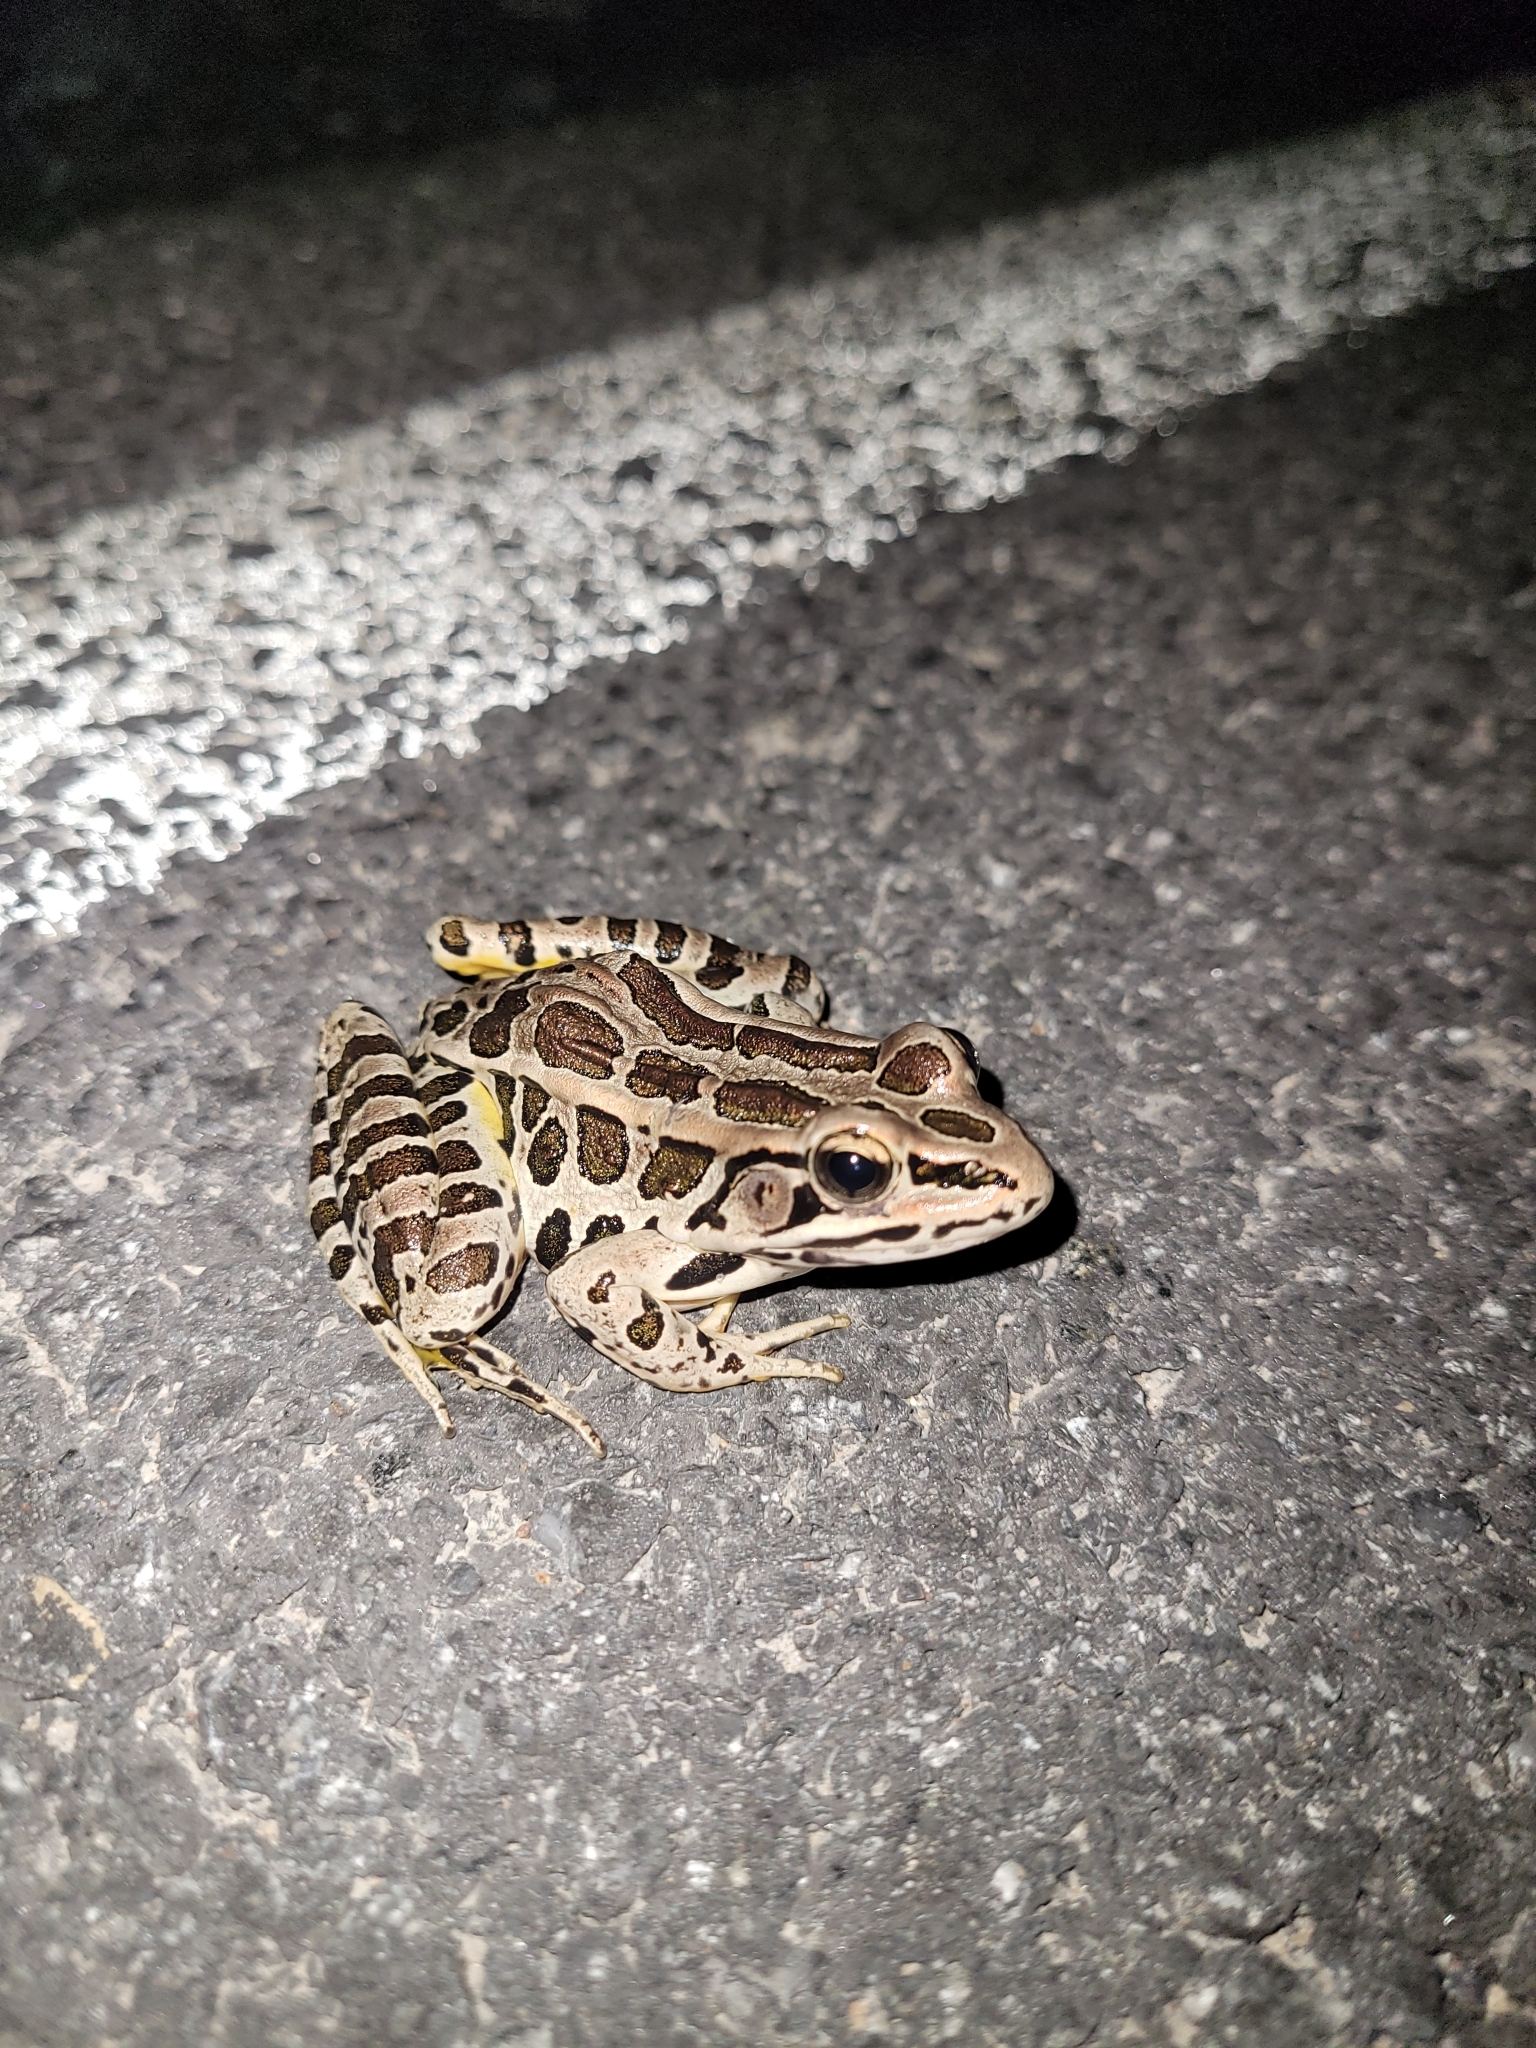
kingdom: Animalia
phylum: Chordata
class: Amphibia
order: Anura
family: Ranidae
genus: Lithobates
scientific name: Lithobates palustris
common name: Pickerel frog
